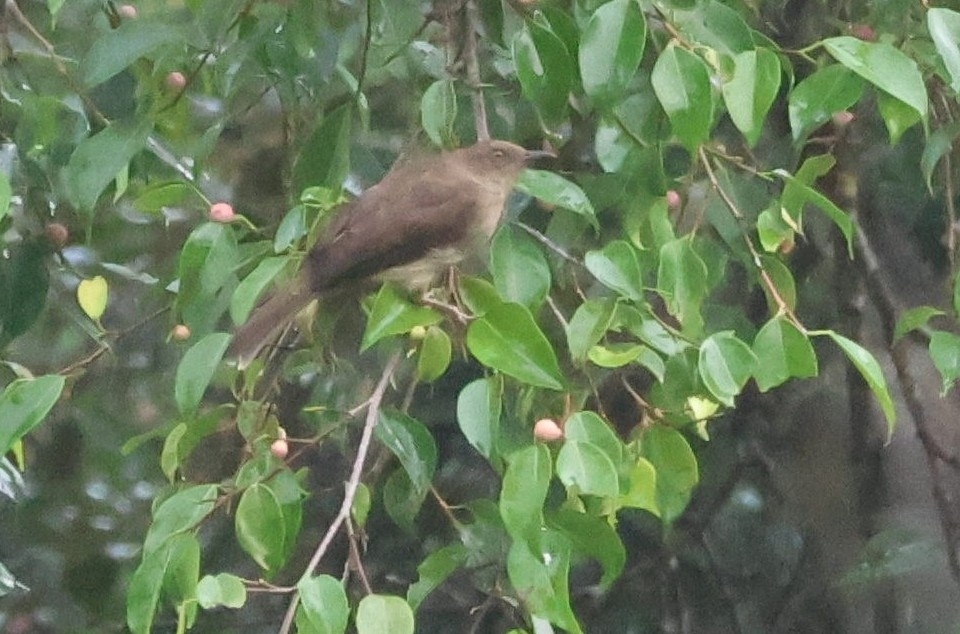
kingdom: Animalia
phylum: Chordata
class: Aves
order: Passeriformes
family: Pycnonotidae
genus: Pycnonotus
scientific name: Pycnonotus brunneus
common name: Asian red-eyed bulbul
